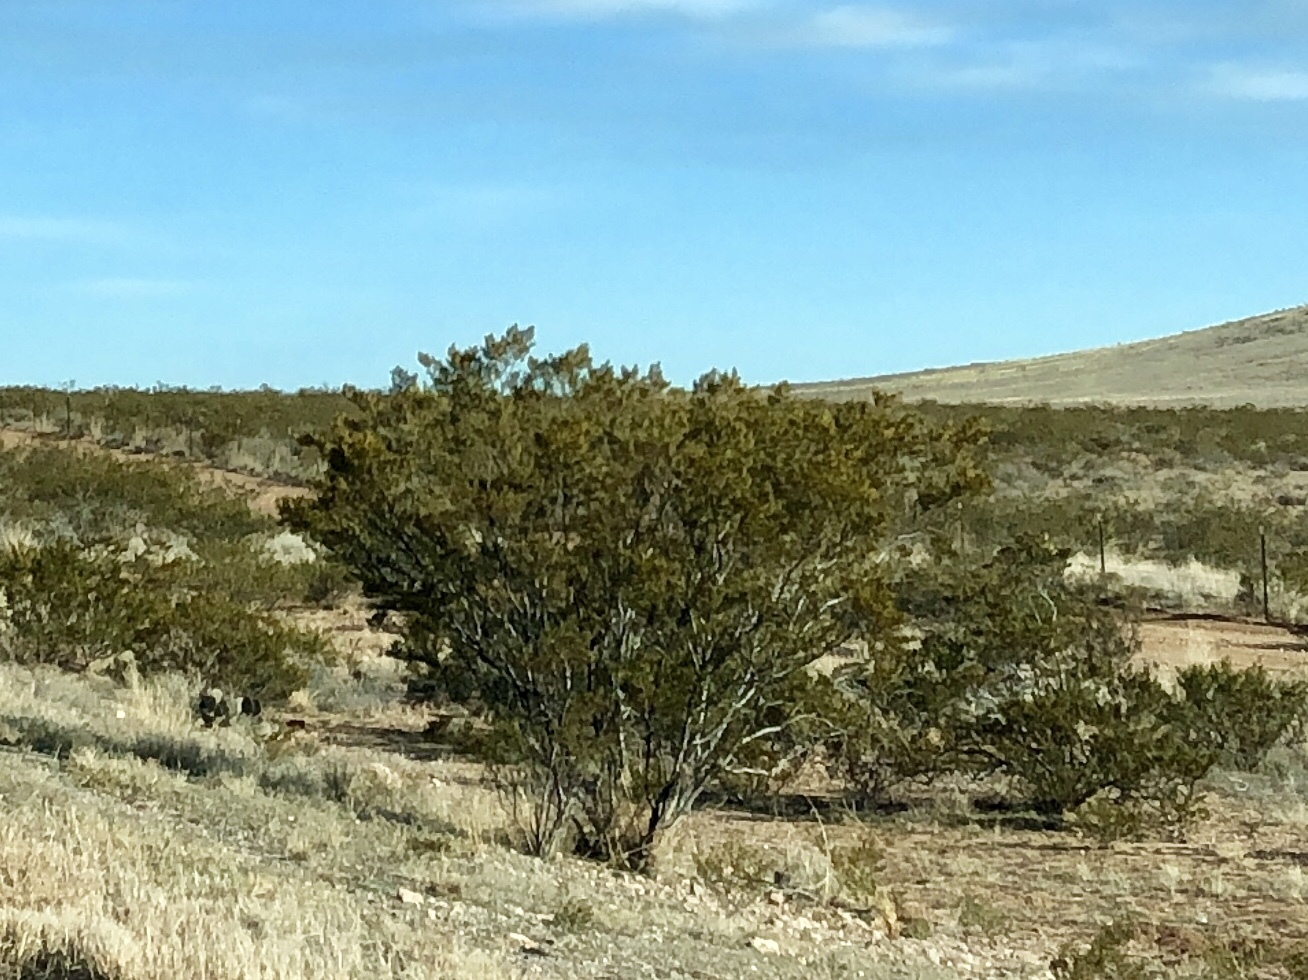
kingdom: Plantae
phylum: Tracheophyta
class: Magnoliopsida
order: Zygophyllales
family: Zygophyllaceae
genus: Larrea
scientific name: Larrea tridentata
